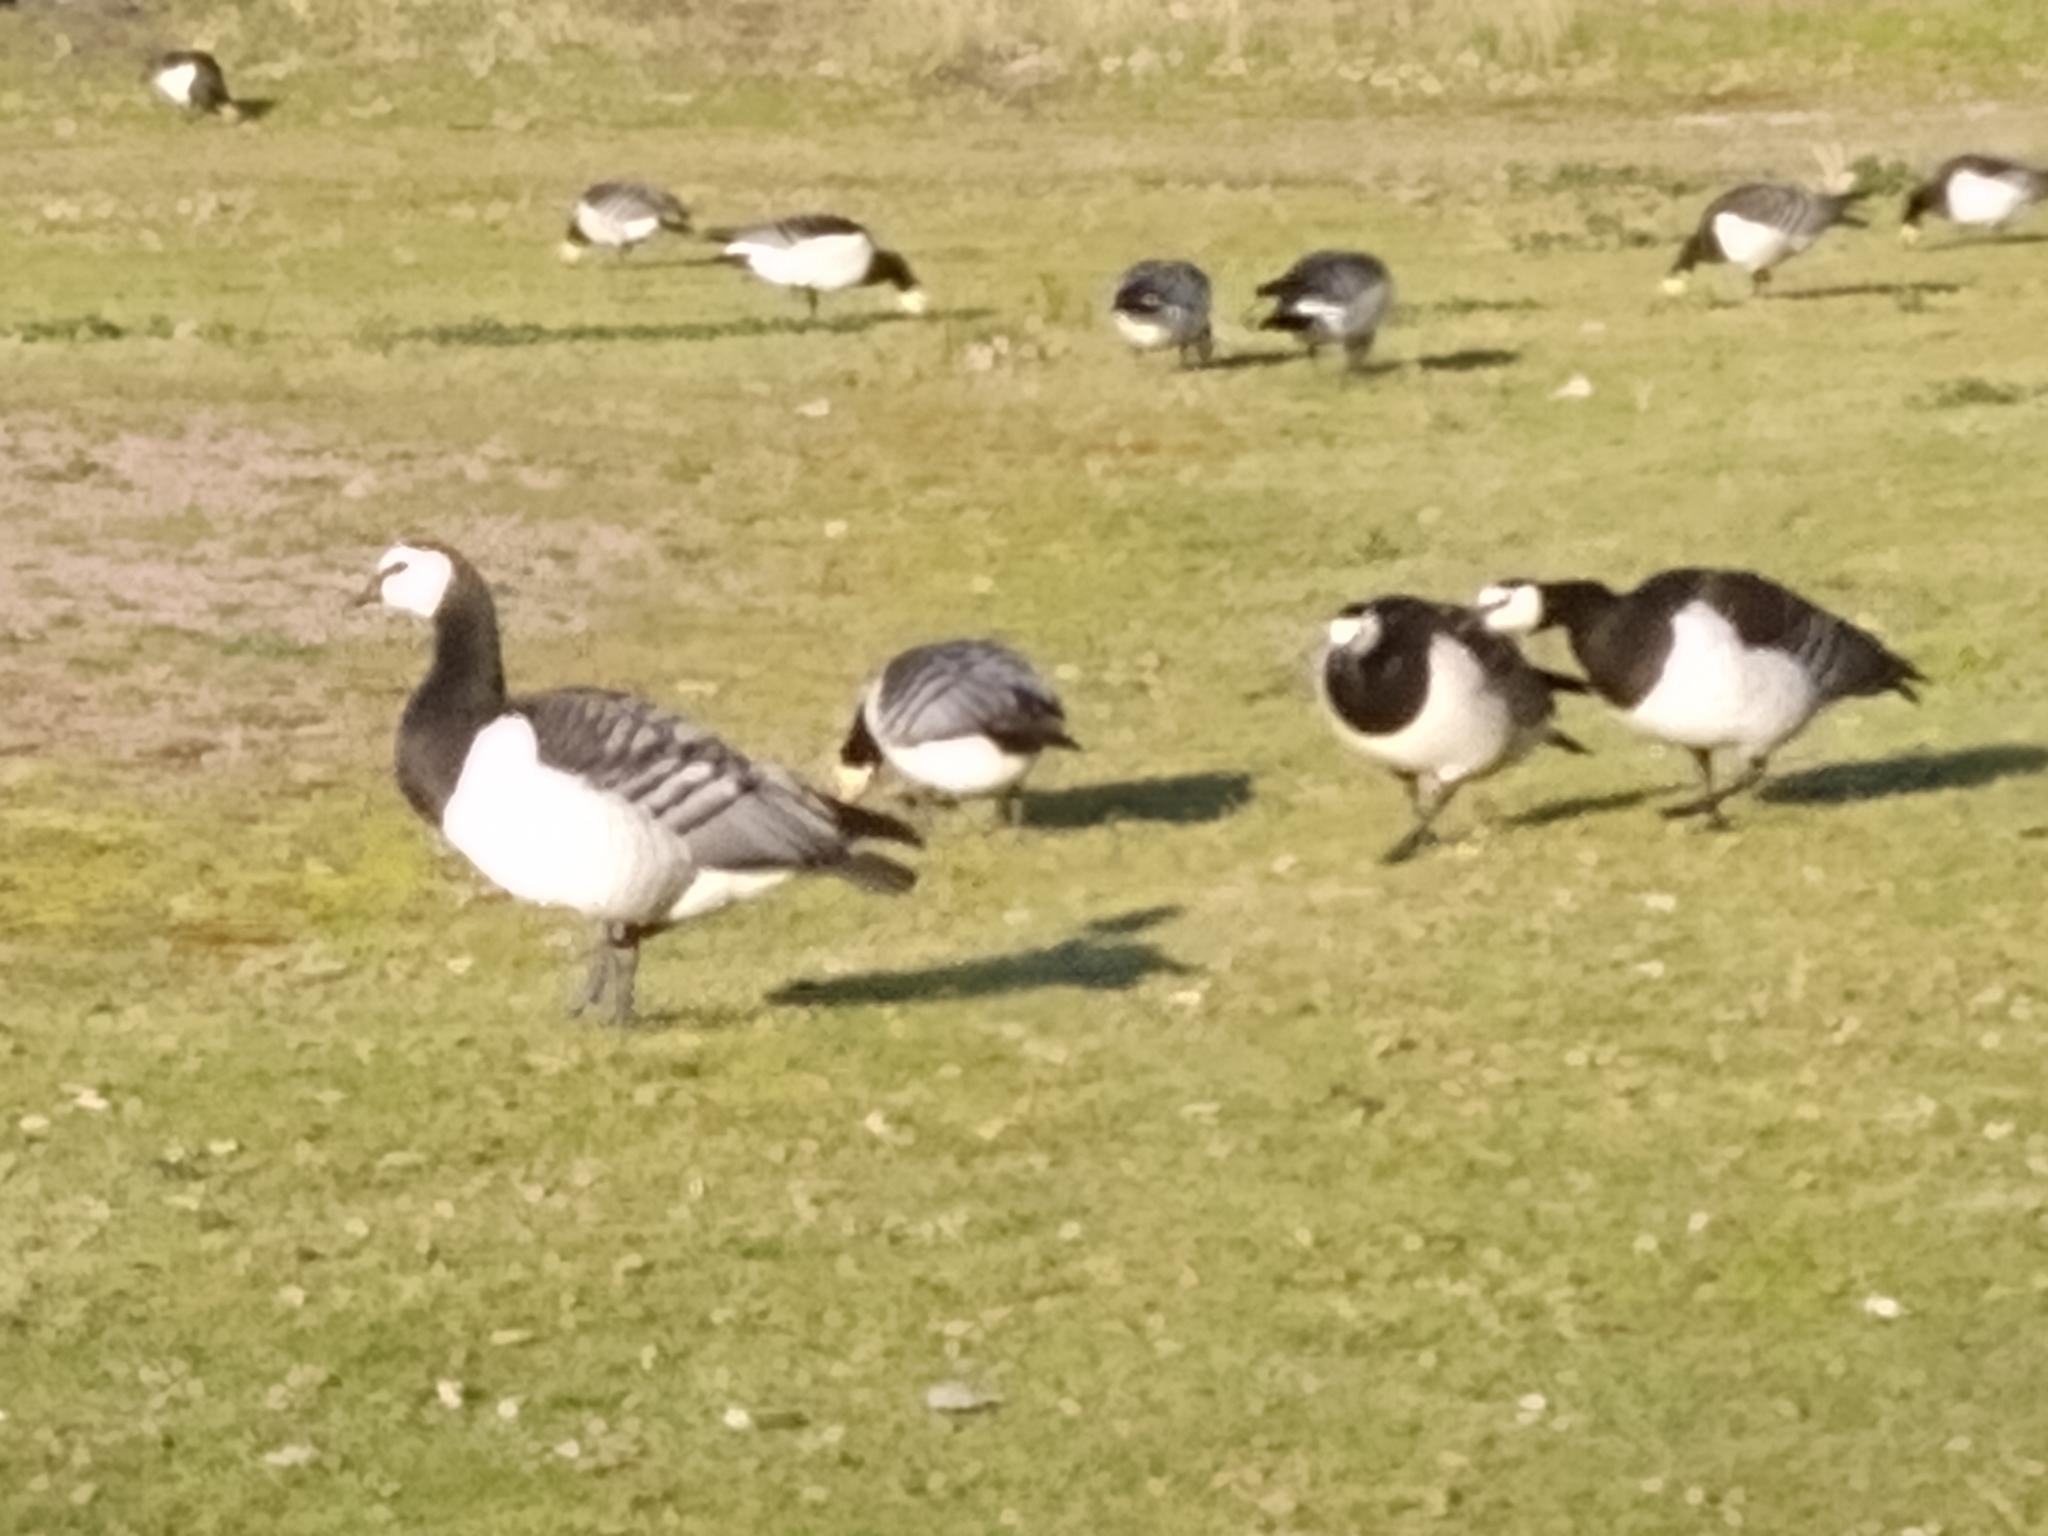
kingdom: Animalia
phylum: Chordata
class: Aves
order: Anseriformes
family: Anatidae
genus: Branta
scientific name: Branta leucopsis
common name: Barnacle goose
